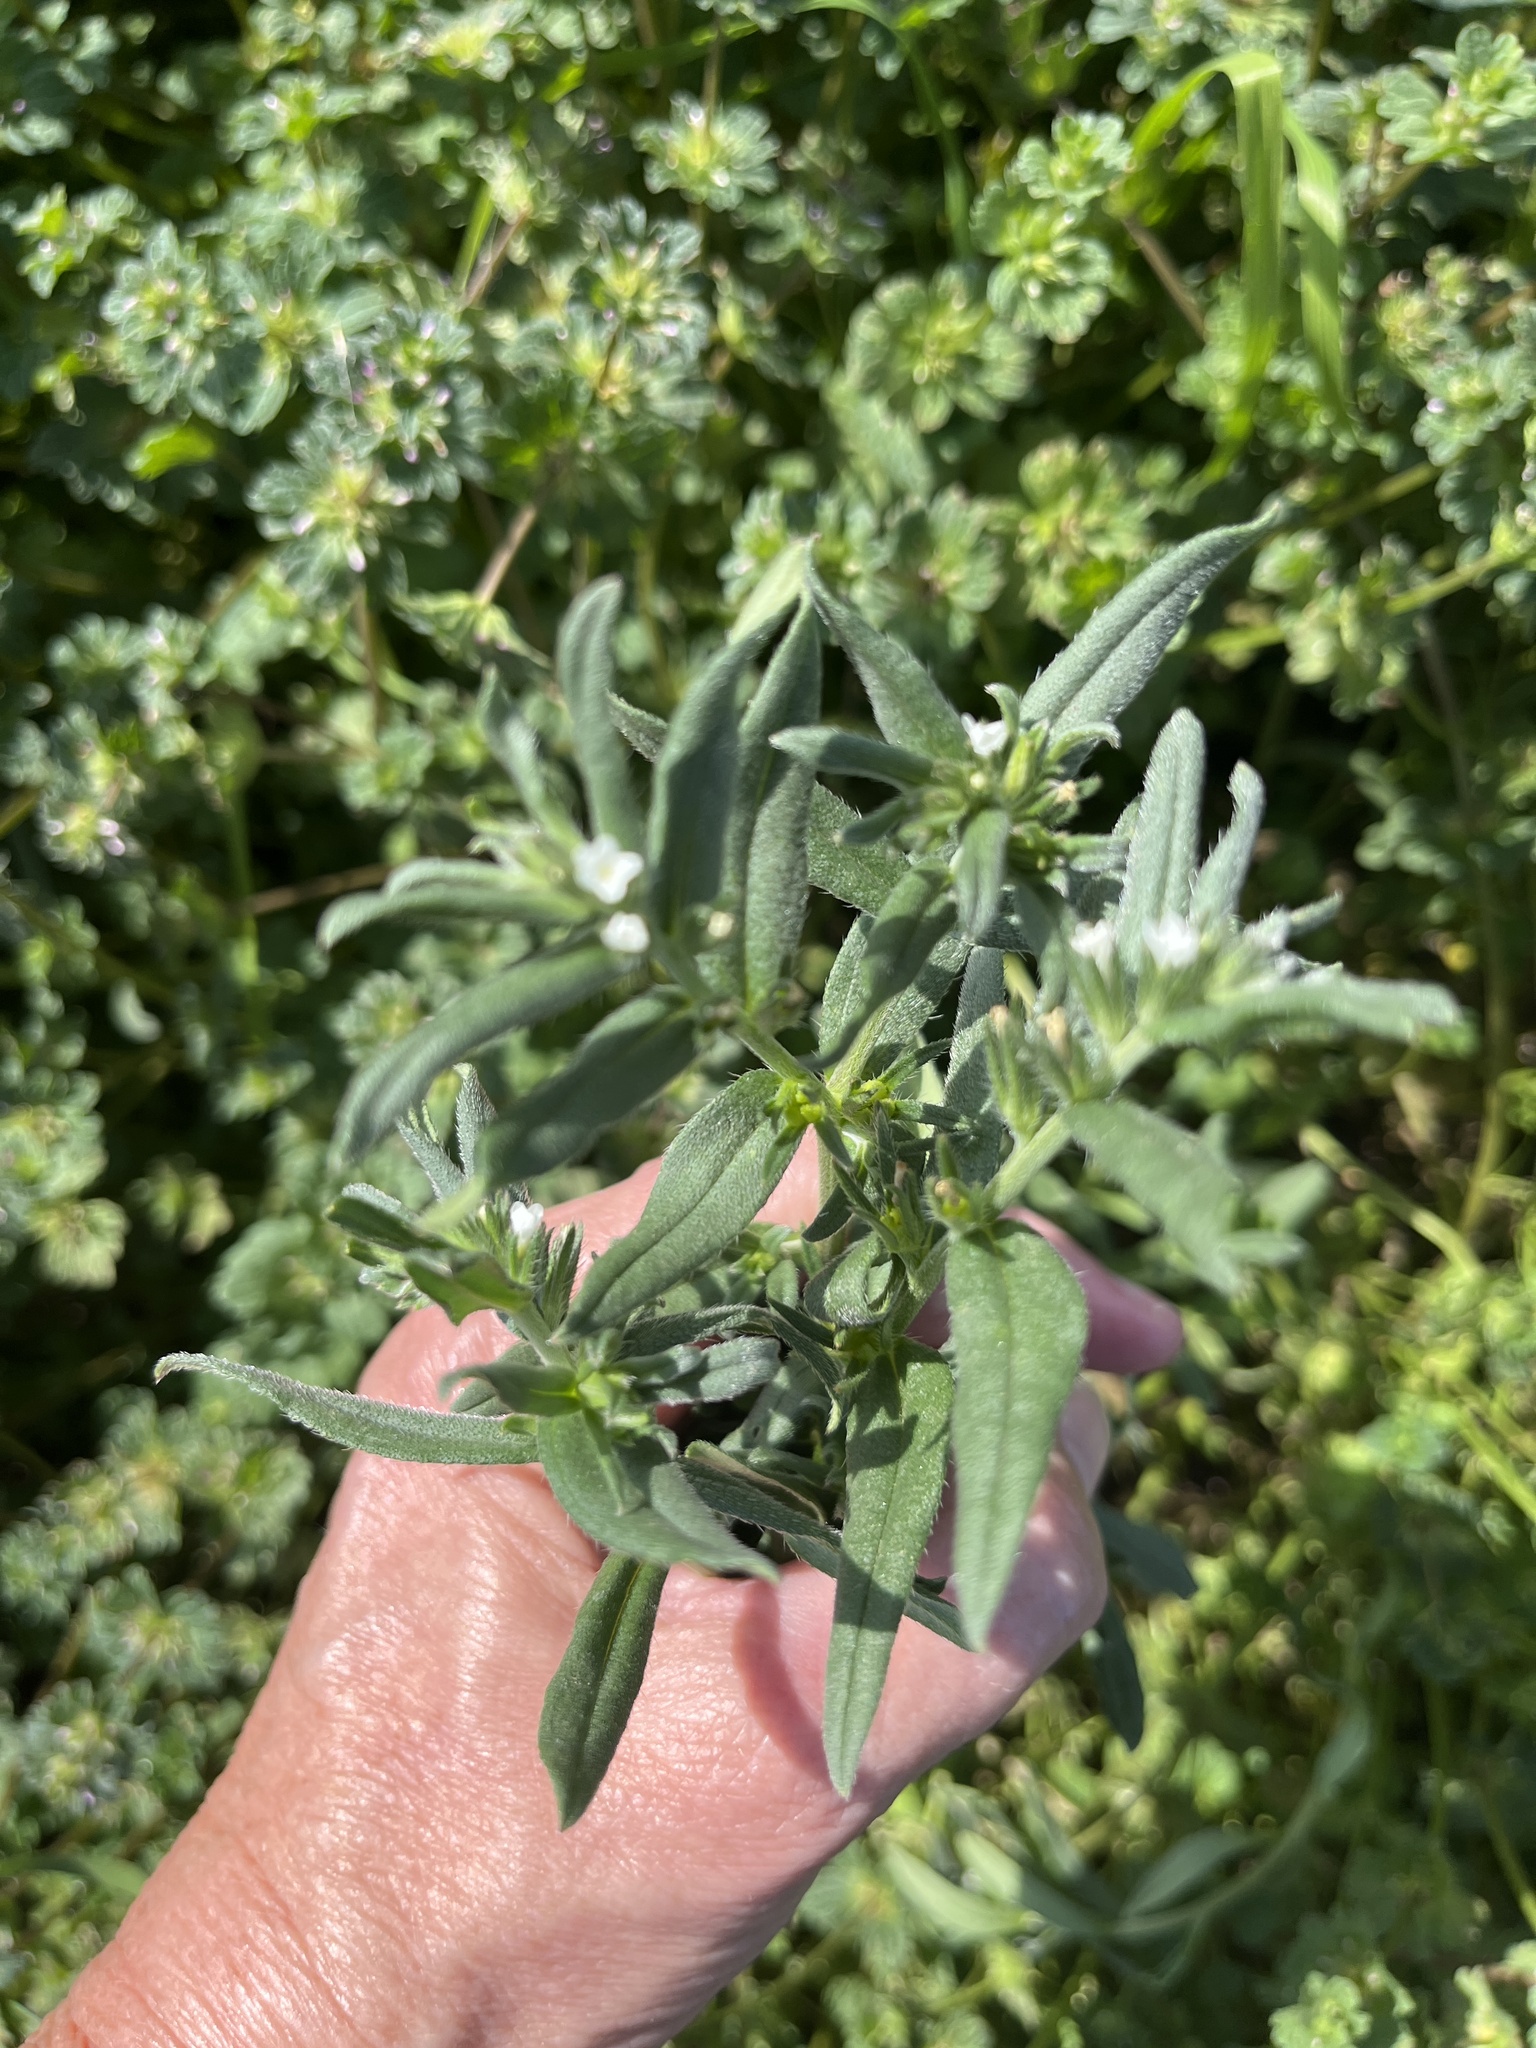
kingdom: Plantae
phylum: Tracheophyta
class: Magnoliopsida
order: Boraginales
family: Boraginaceae
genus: Buglossoides
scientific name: Buglossoides arvensis
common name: Corn gromwell
